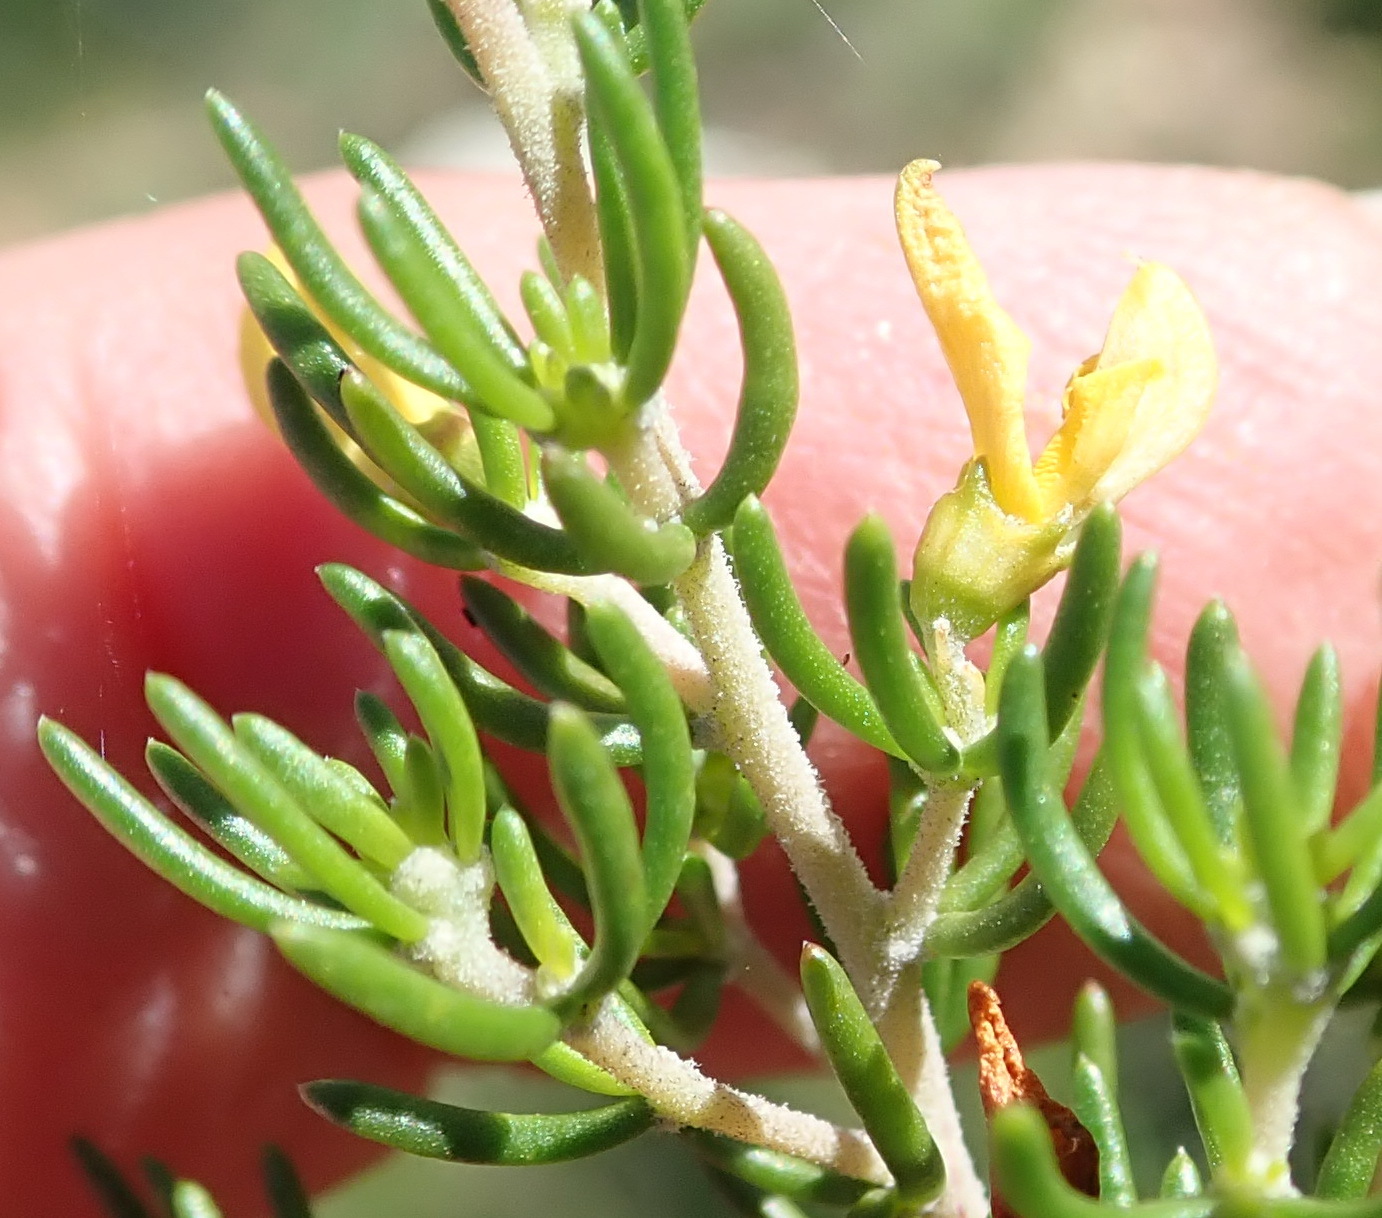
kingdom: Plantae
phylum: Tracheophyta
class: Magnoliopsida
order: Fabales
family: Fabaceae
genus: Aspalathus
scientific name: Aspalathus subtingens
